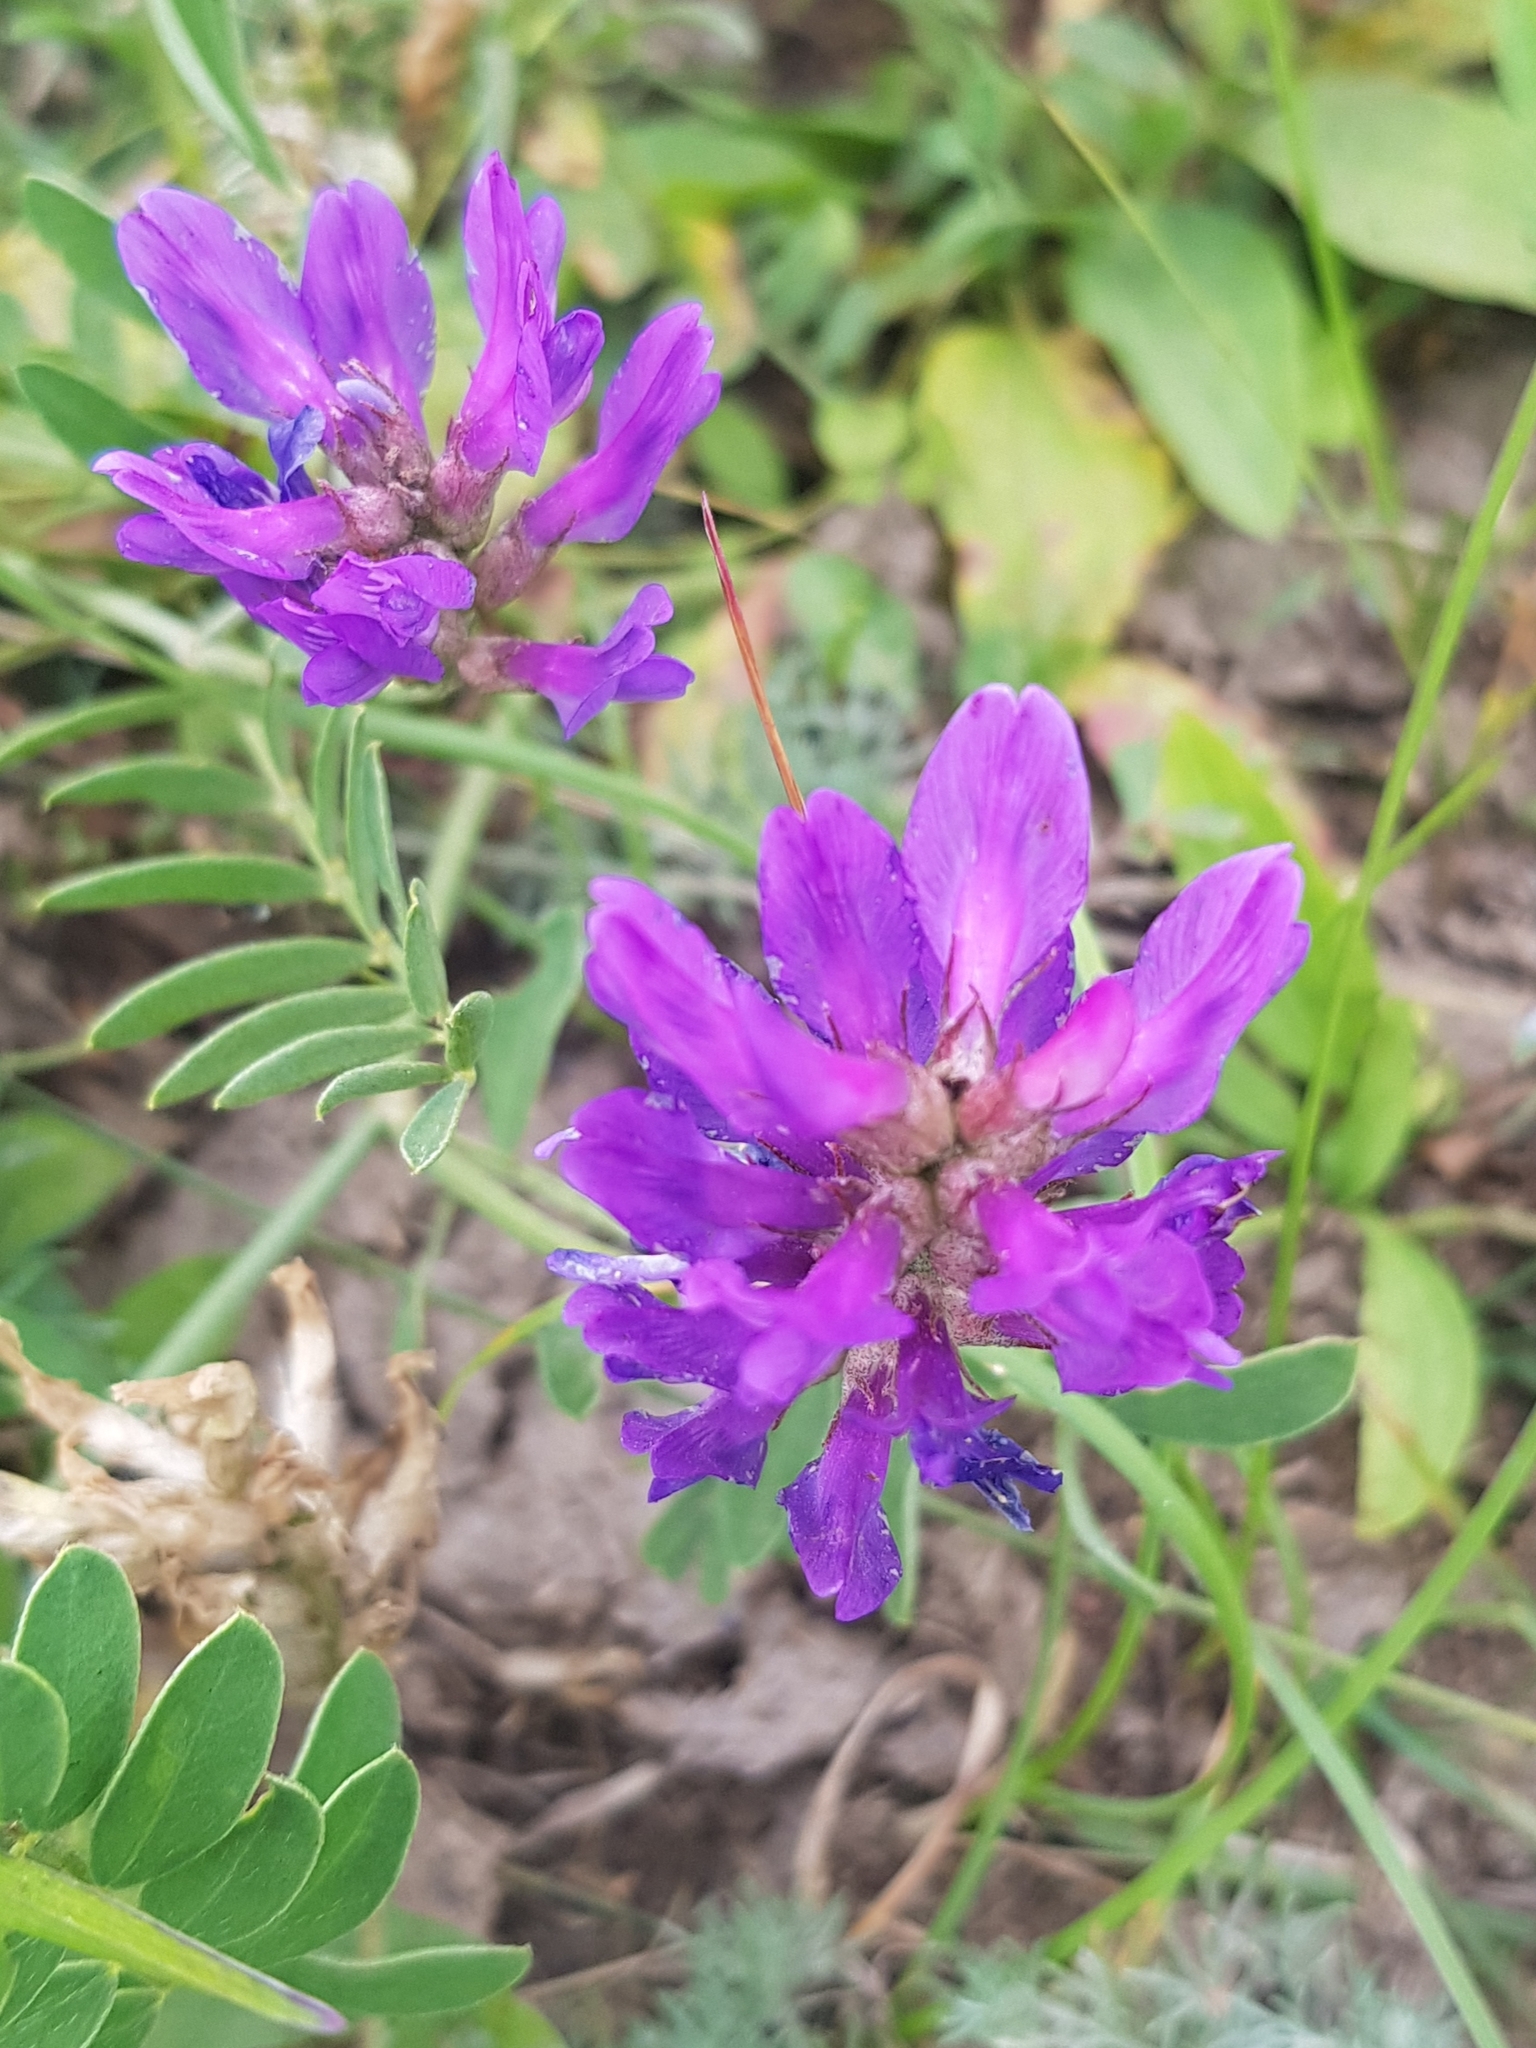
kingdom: Plantae
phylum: Tracheophyta
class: Magnoliopsida
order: Fabales
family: Fabaceae
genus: Astragalus
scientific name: Astragalus laxmannii
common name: Laxmann's milk-vetch
